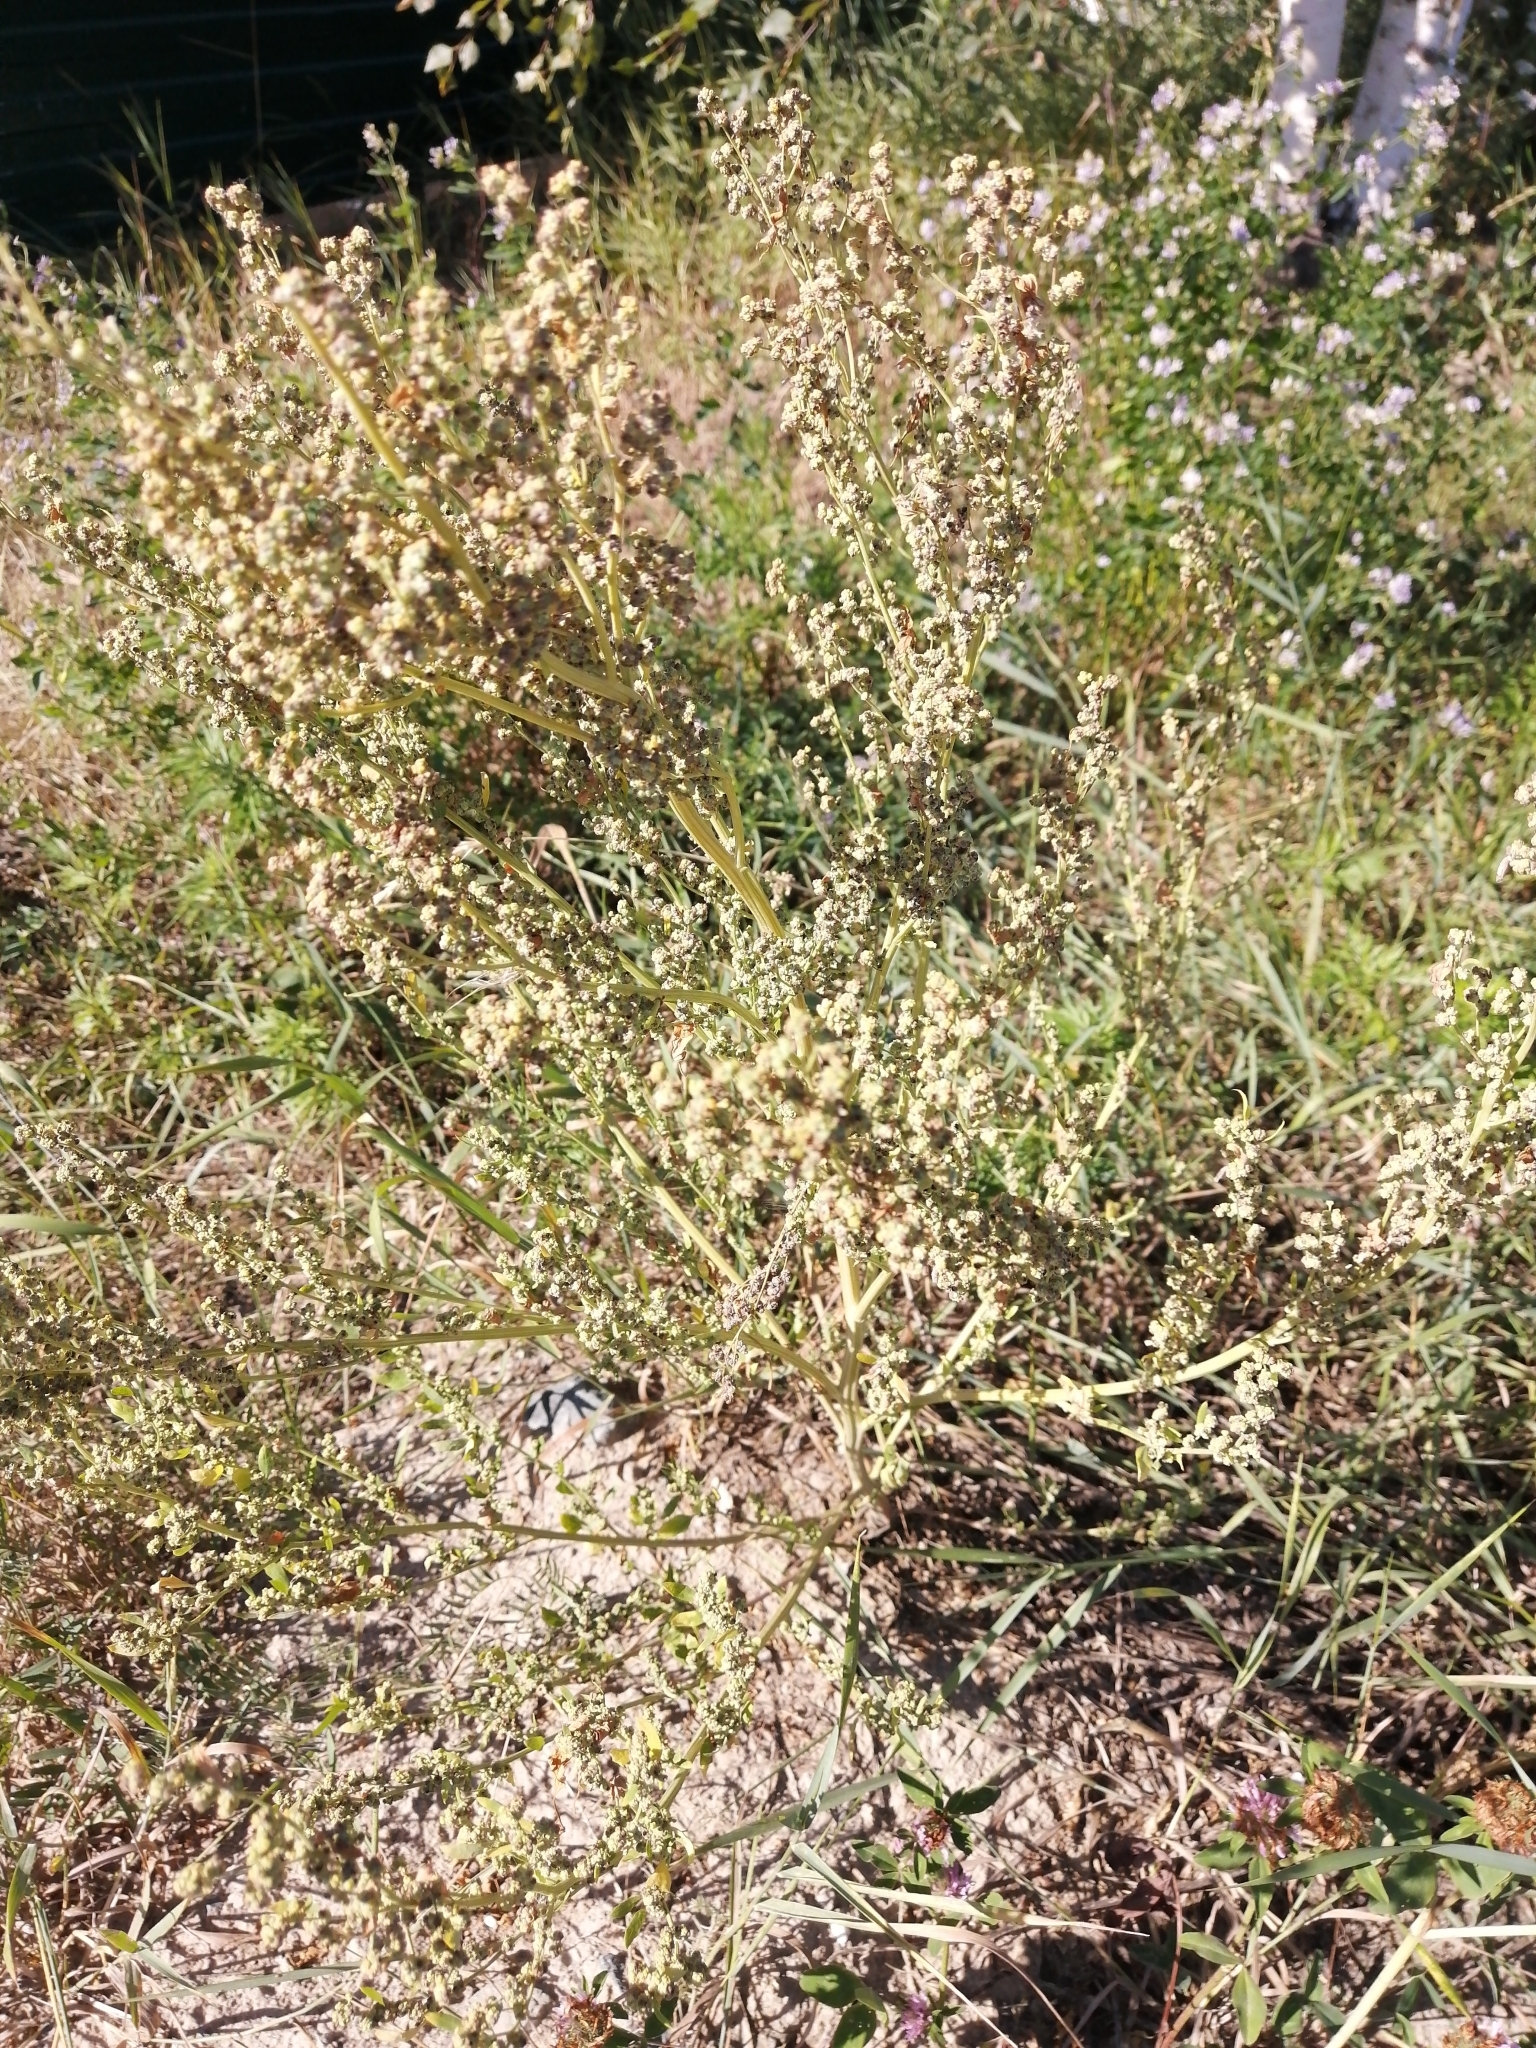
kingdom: Plantae
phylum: Tracheophyta
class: Magnoliopsida
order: Caryophyllales
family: Amaranthaceae
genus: Chenopodium
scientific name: Chenopodium album
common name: Fat-hen
